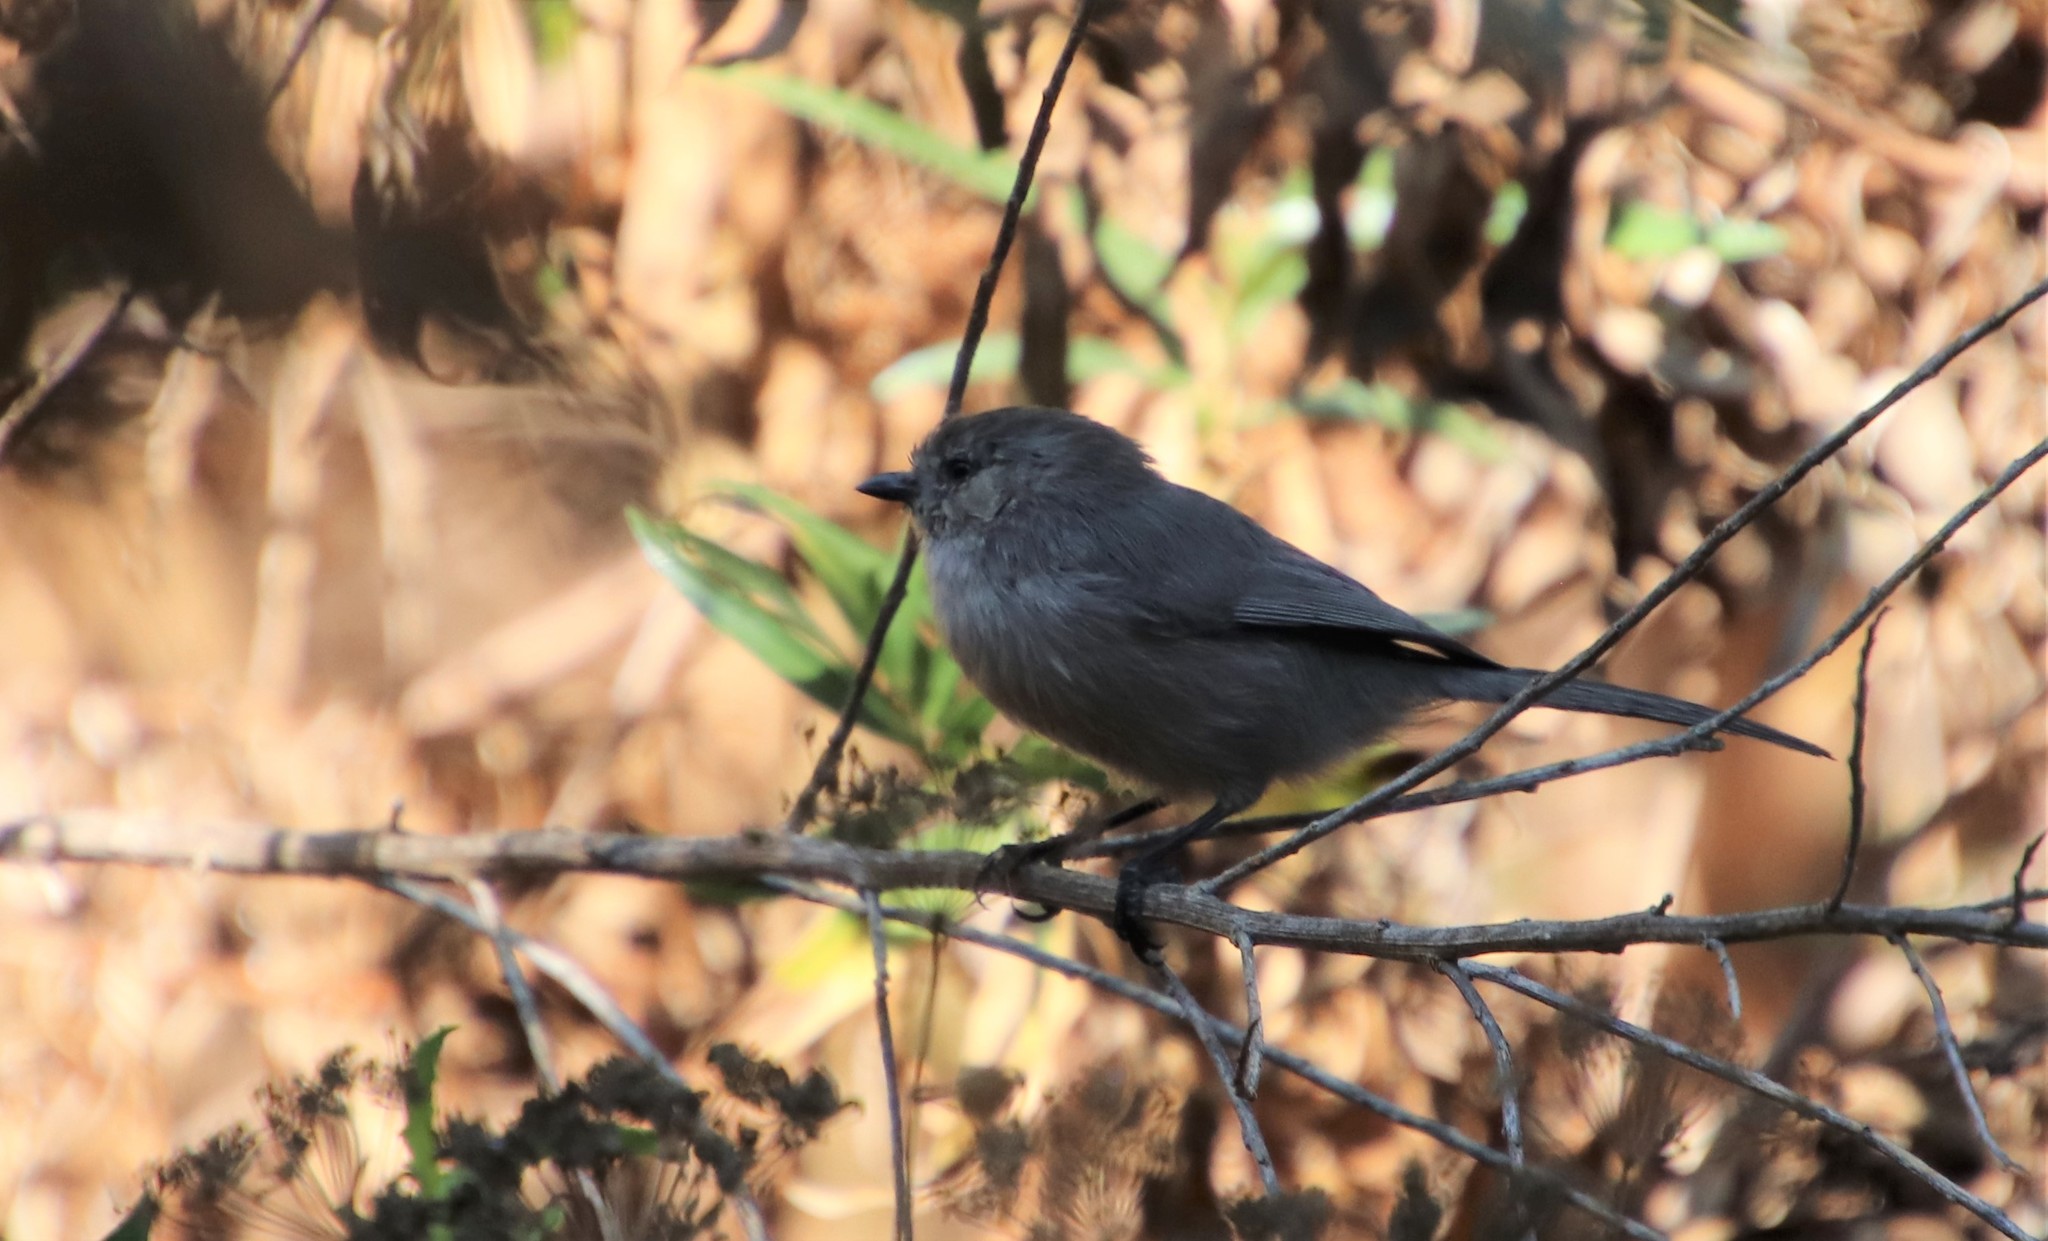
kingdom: Animalia
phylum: Chordata
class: Aves
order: Passeriformes
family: Aegithalidae
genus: Psaltriparus
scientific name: Psaltriparus minimus
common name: American bushtit
